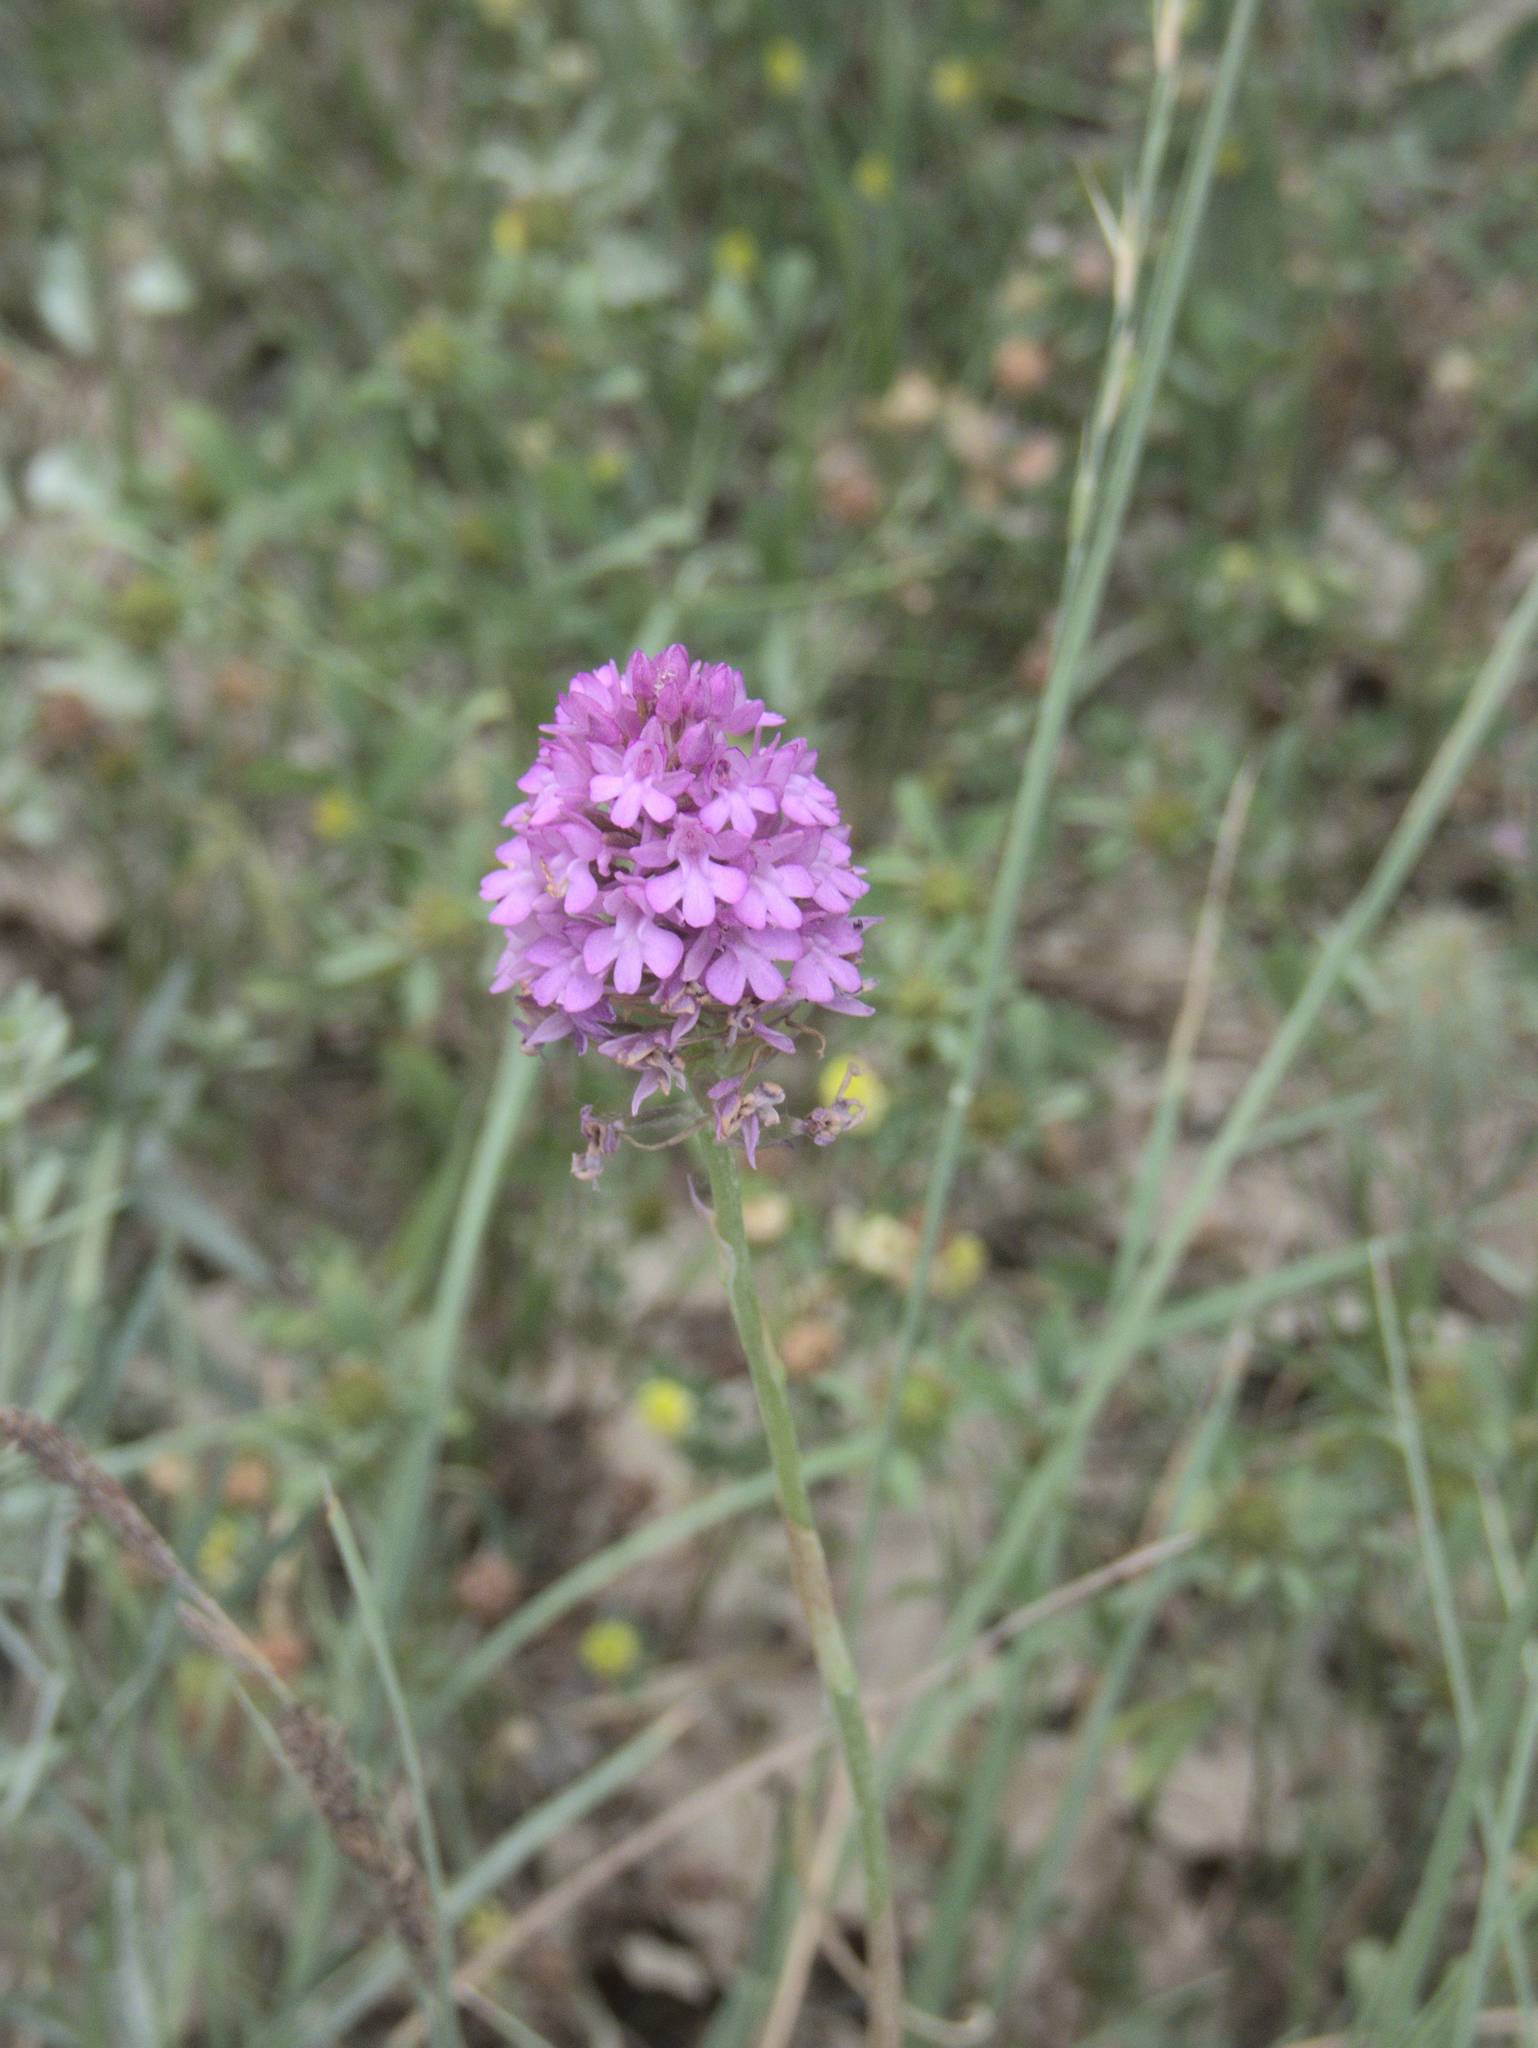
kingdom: Plantae
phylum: Tracheophyta
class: Liliopsida
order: Asparagales
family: Orchidaceae
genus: Anacamptis
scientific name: Anacamptis pyramidalis
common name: Pyramidal orchid
